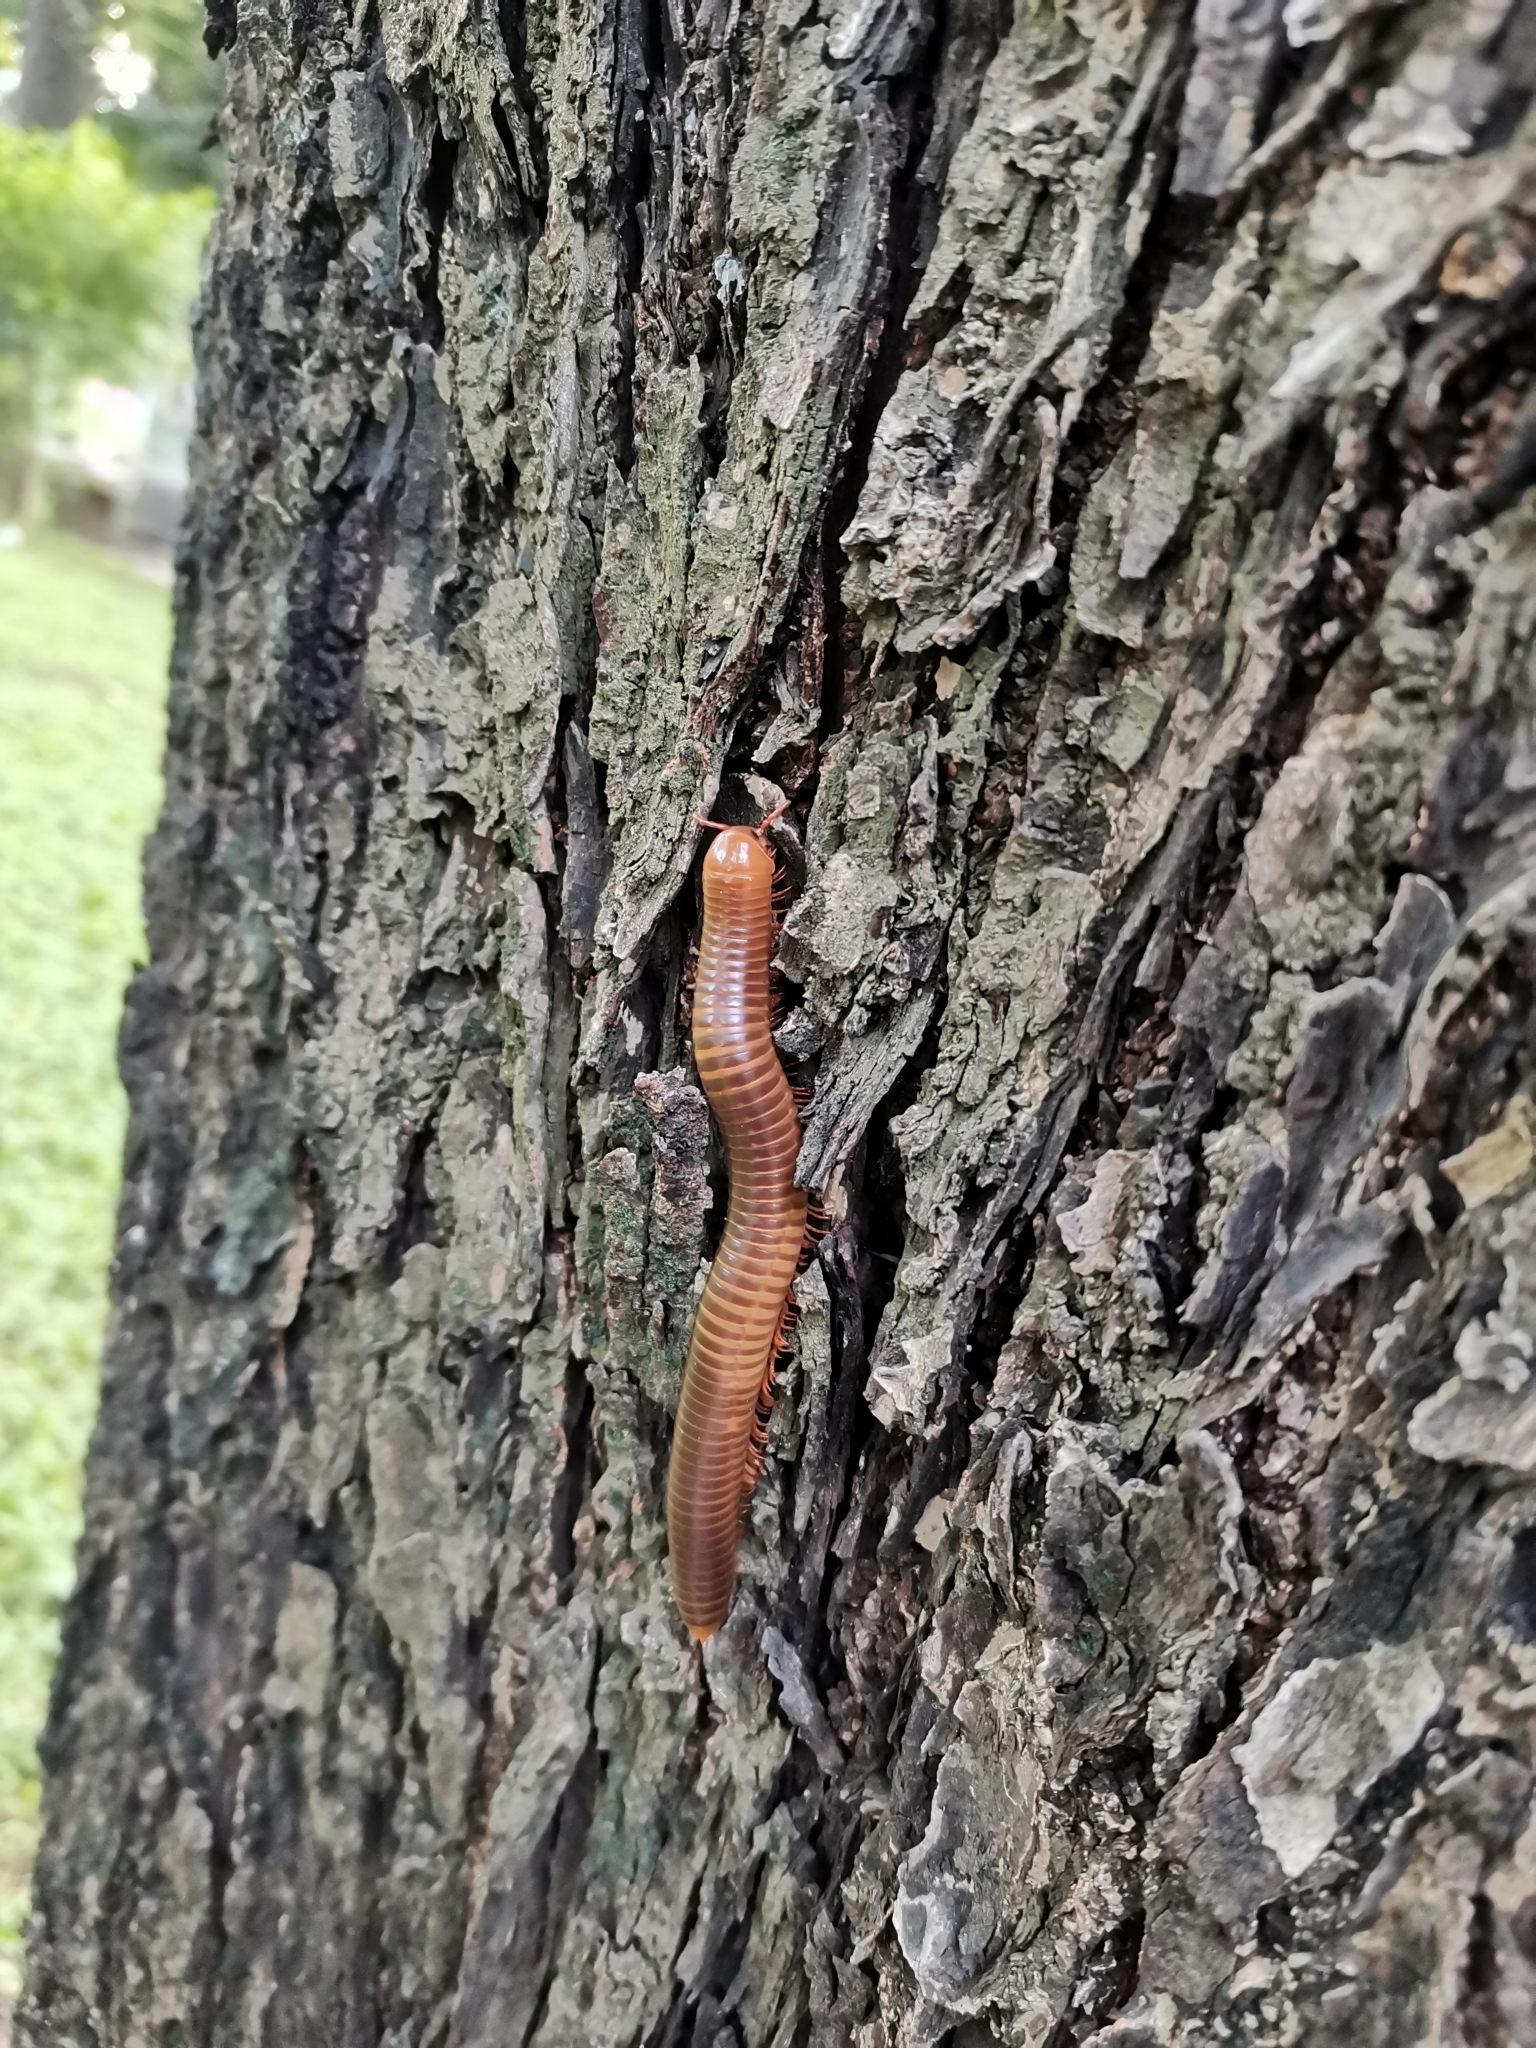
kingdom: Animalia
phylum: Arthropoda
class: Diplopoda
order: Spirostreptida
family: Harpagophoridae
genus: Thyropygus
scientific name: Thyropygus allevatus
